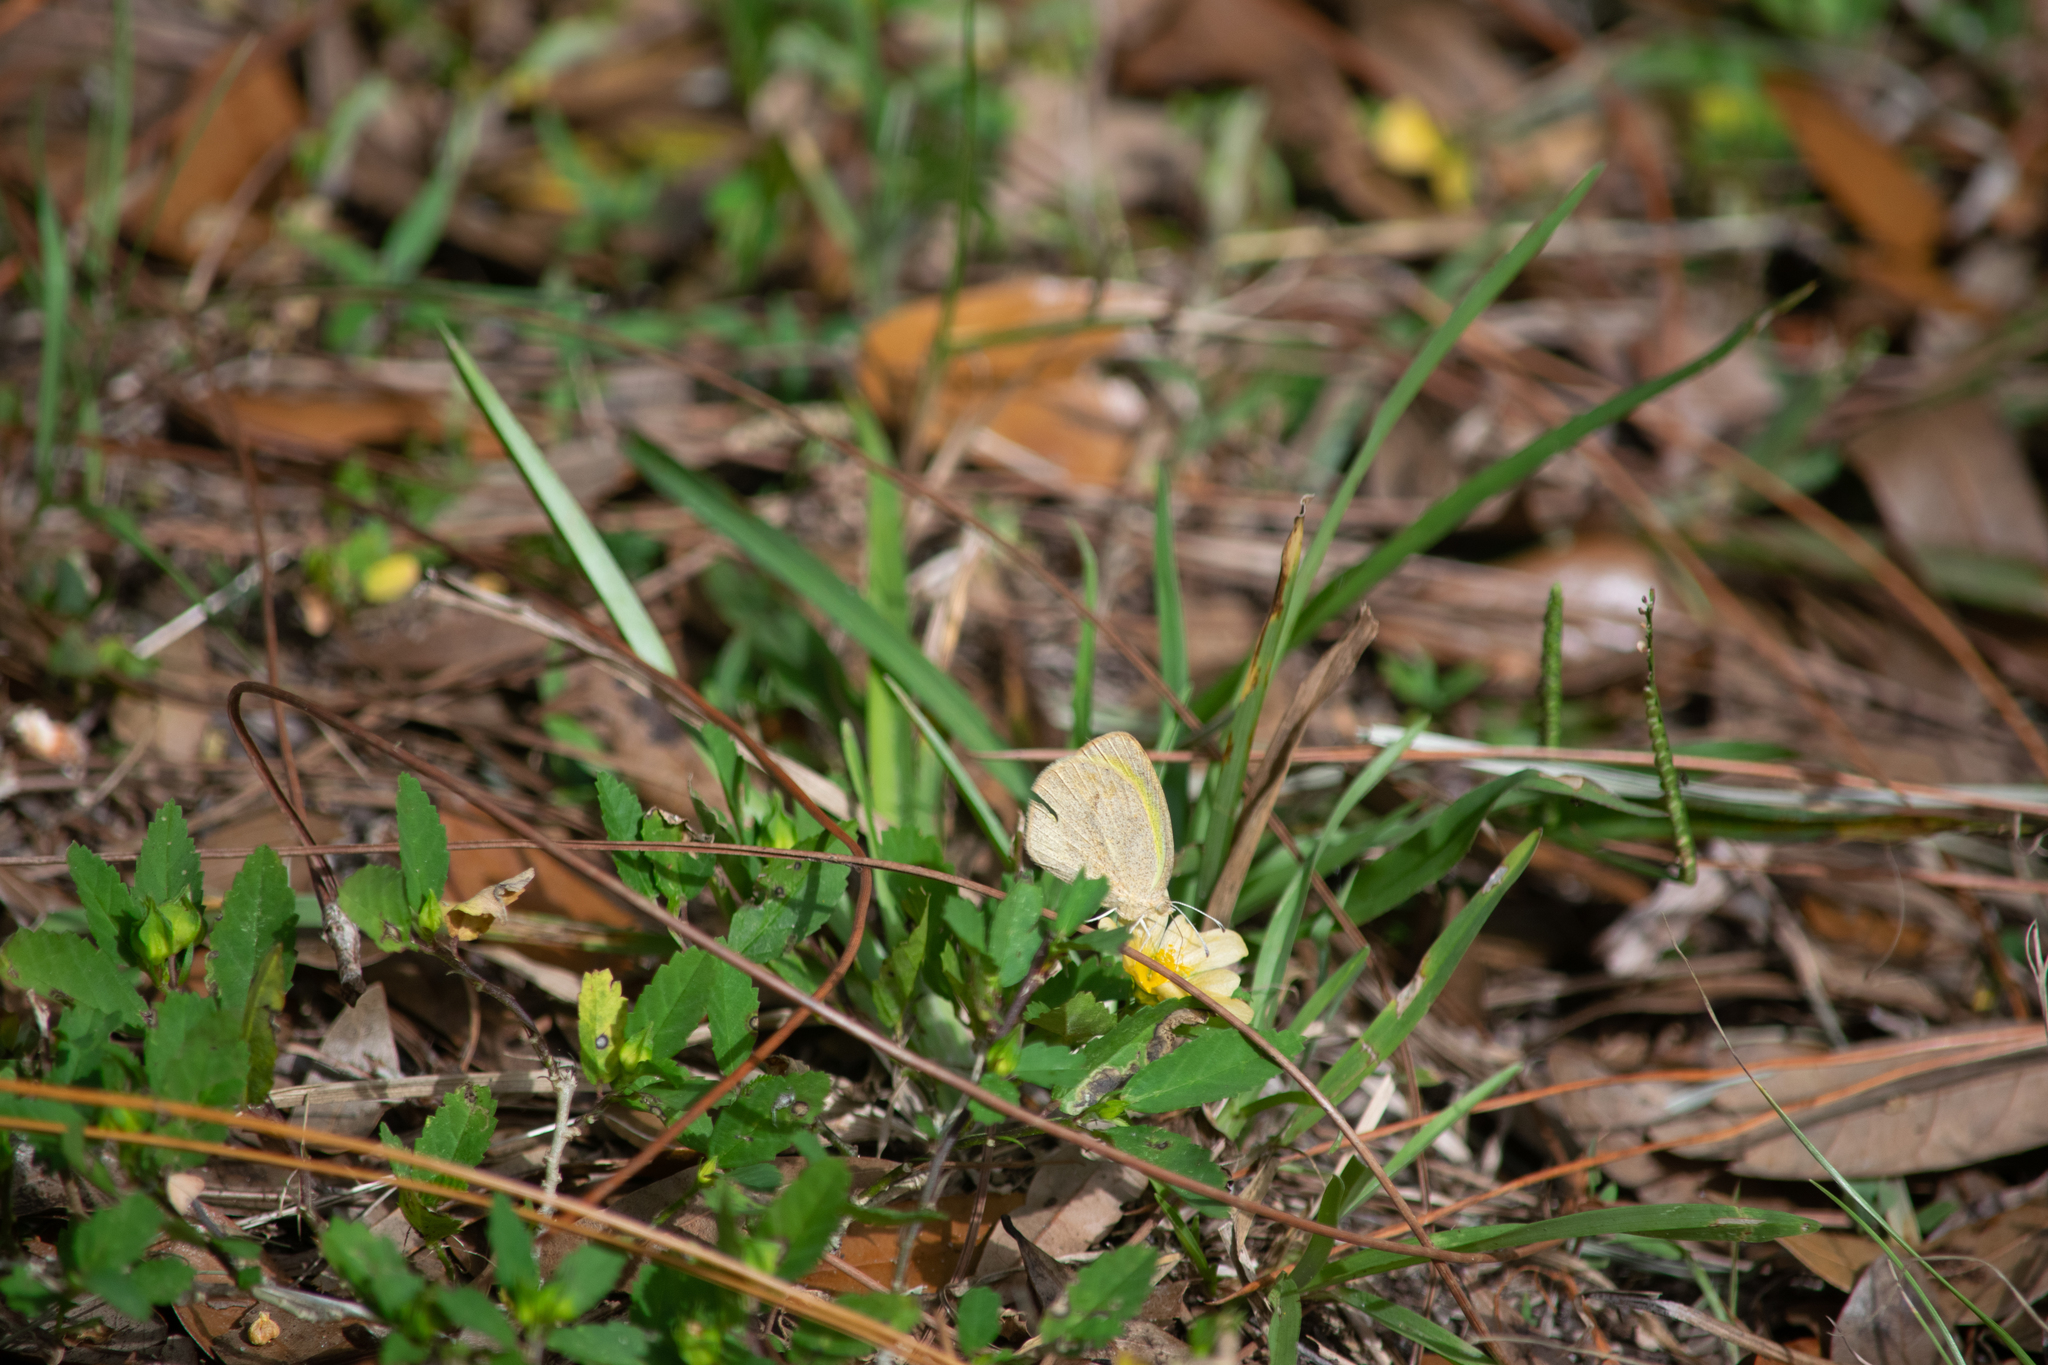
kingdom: Animalia
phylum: Arthropoda
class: Insecta
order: Lepidoptera
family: Pieridae
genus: Eurema
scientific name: Eurema daira
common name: Barred sulphur
